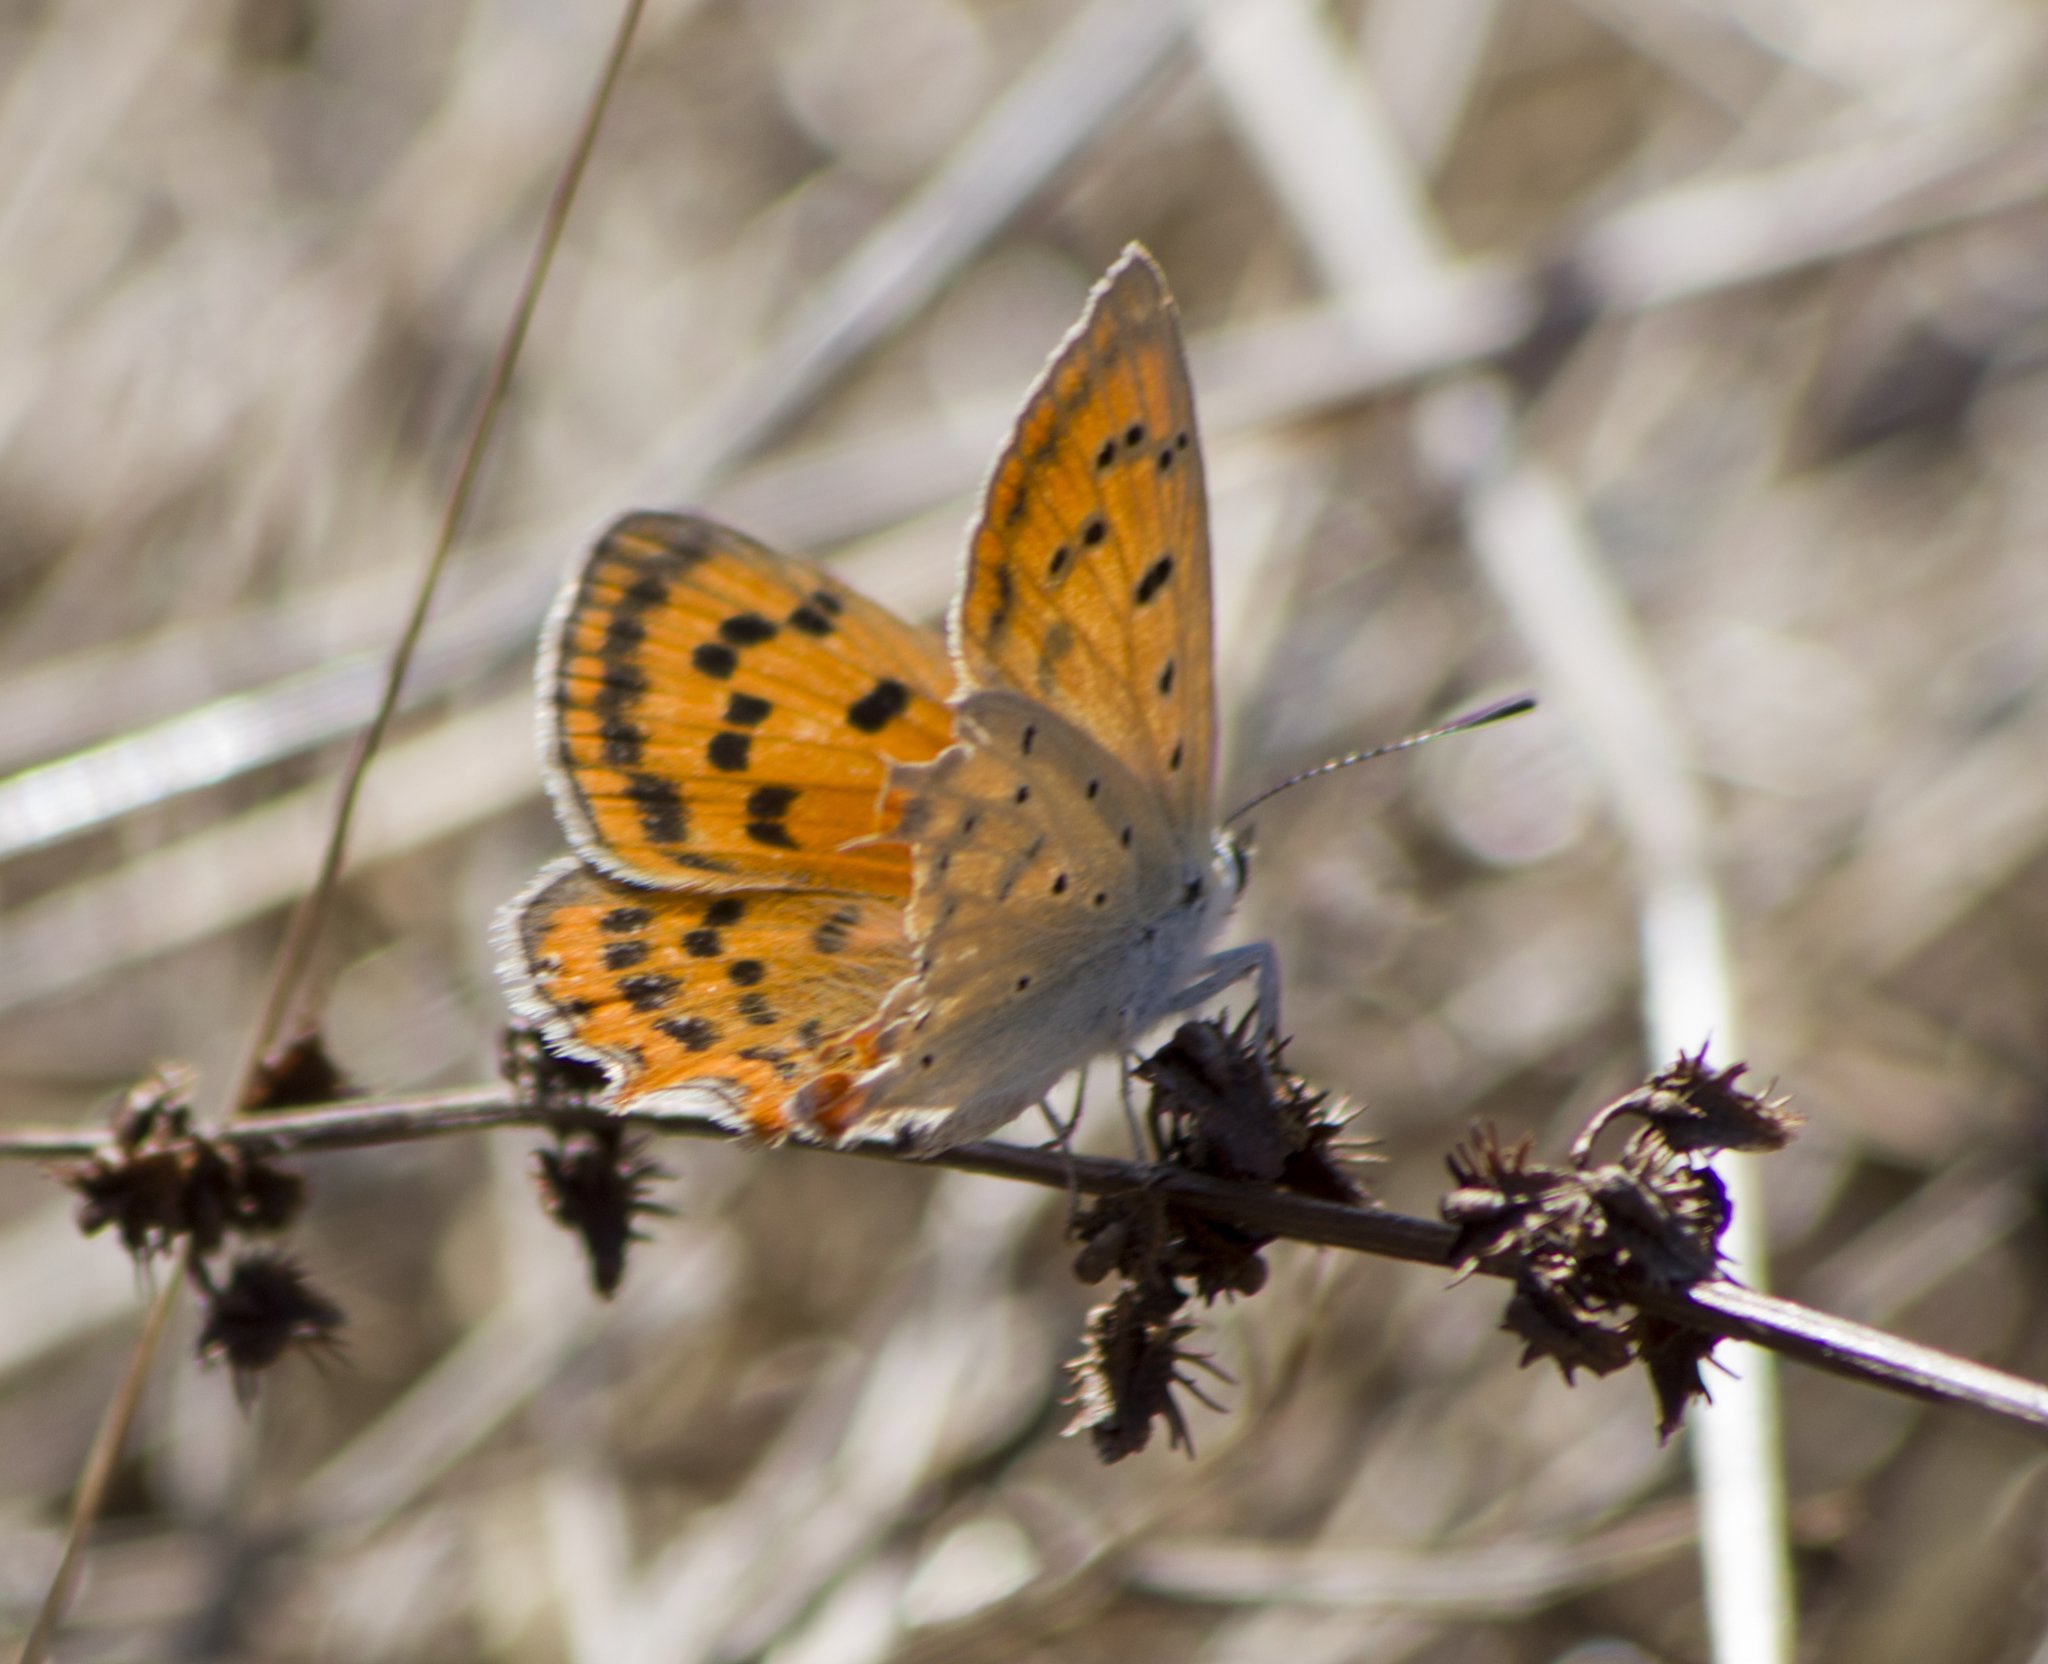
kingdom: Animalia
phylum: Arthropoda
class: Insecta
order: Lepidoptera
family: Lycaenidae
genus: Polyommatus
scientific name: Polyommatus ottomanus
